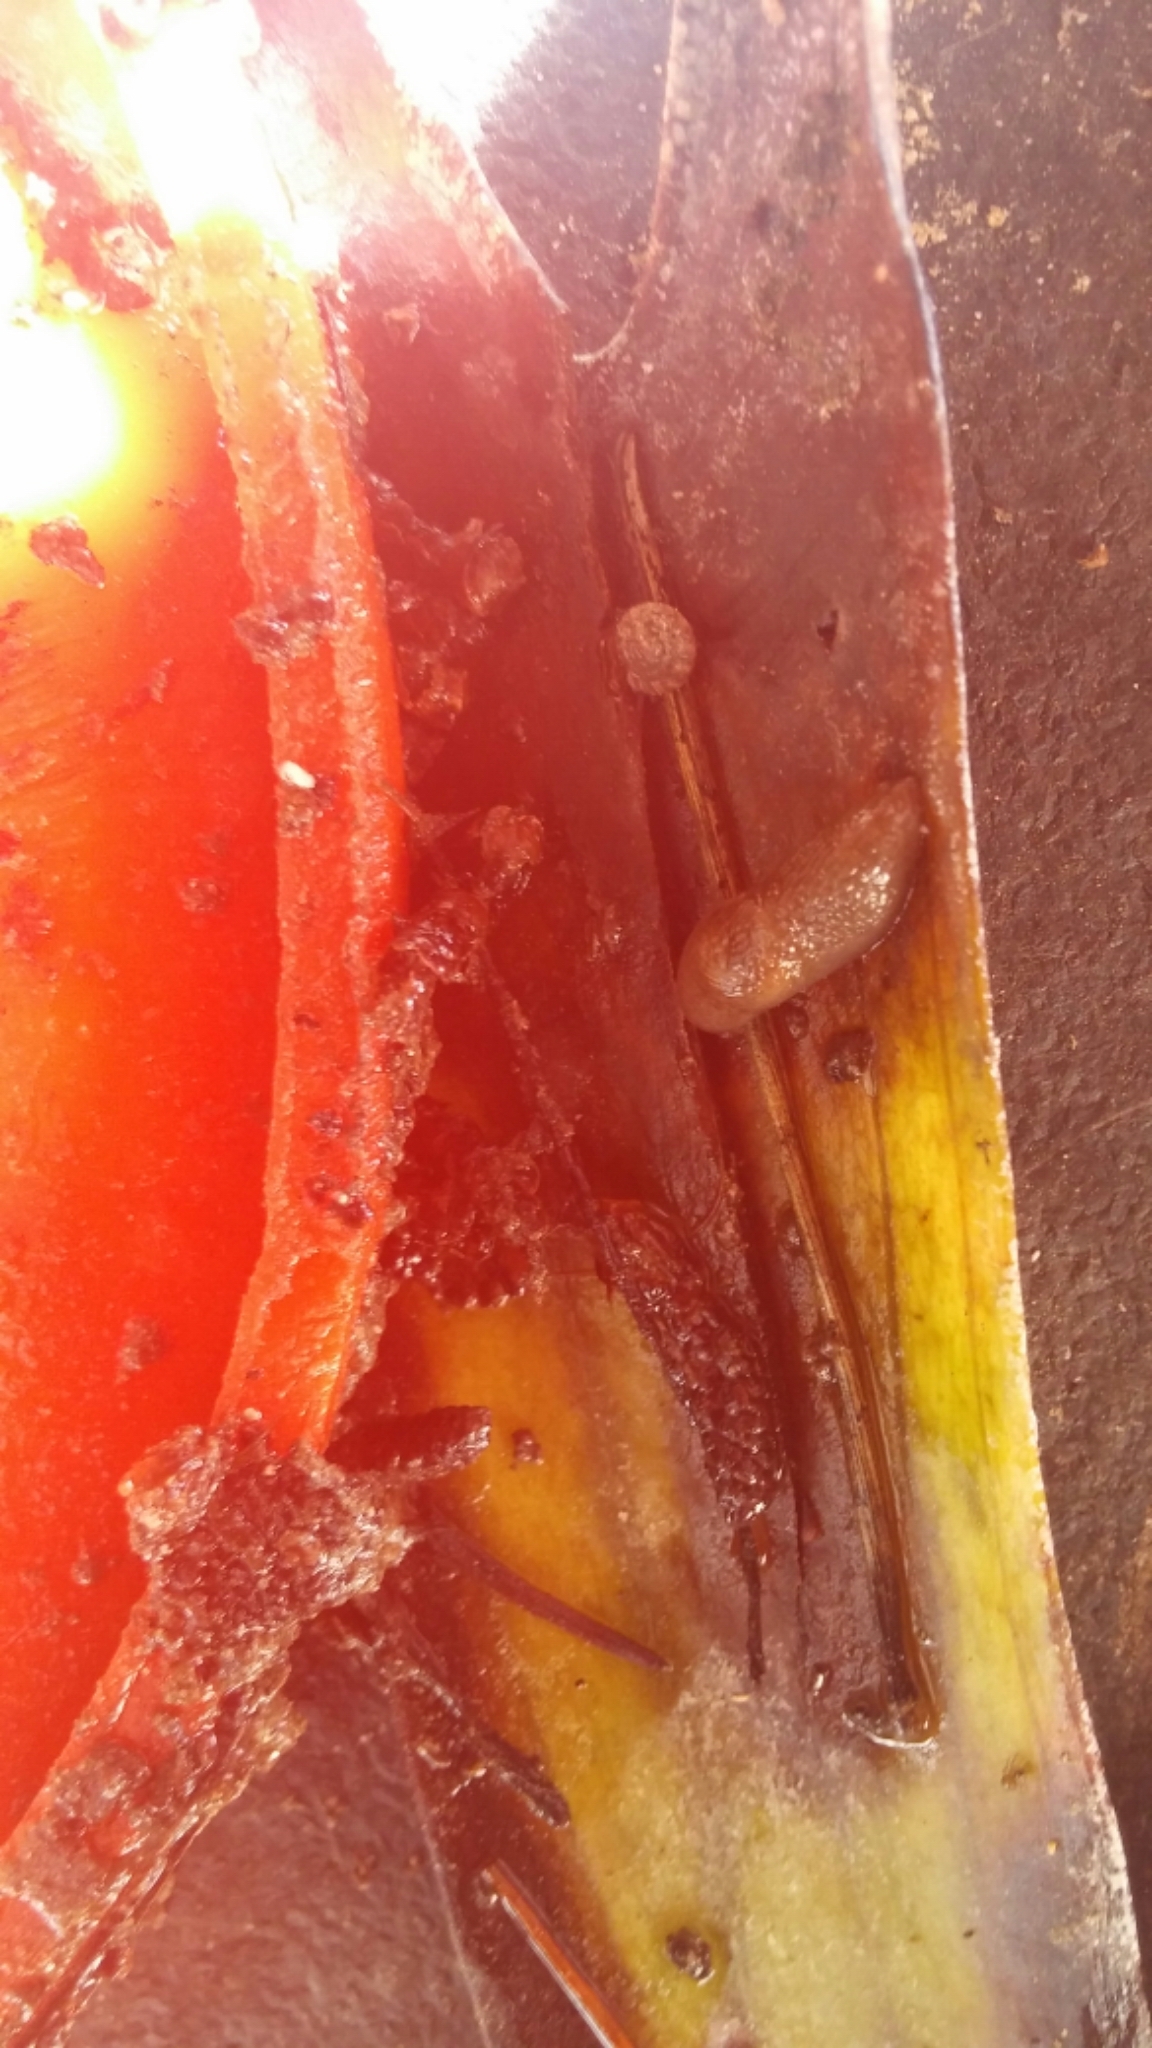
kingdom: Animalia
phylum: Mollusca
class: Gastropoda
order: Stylommatophora
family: Discidae
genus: Discus
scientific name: Discus rotundatus
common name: Rounded snail
